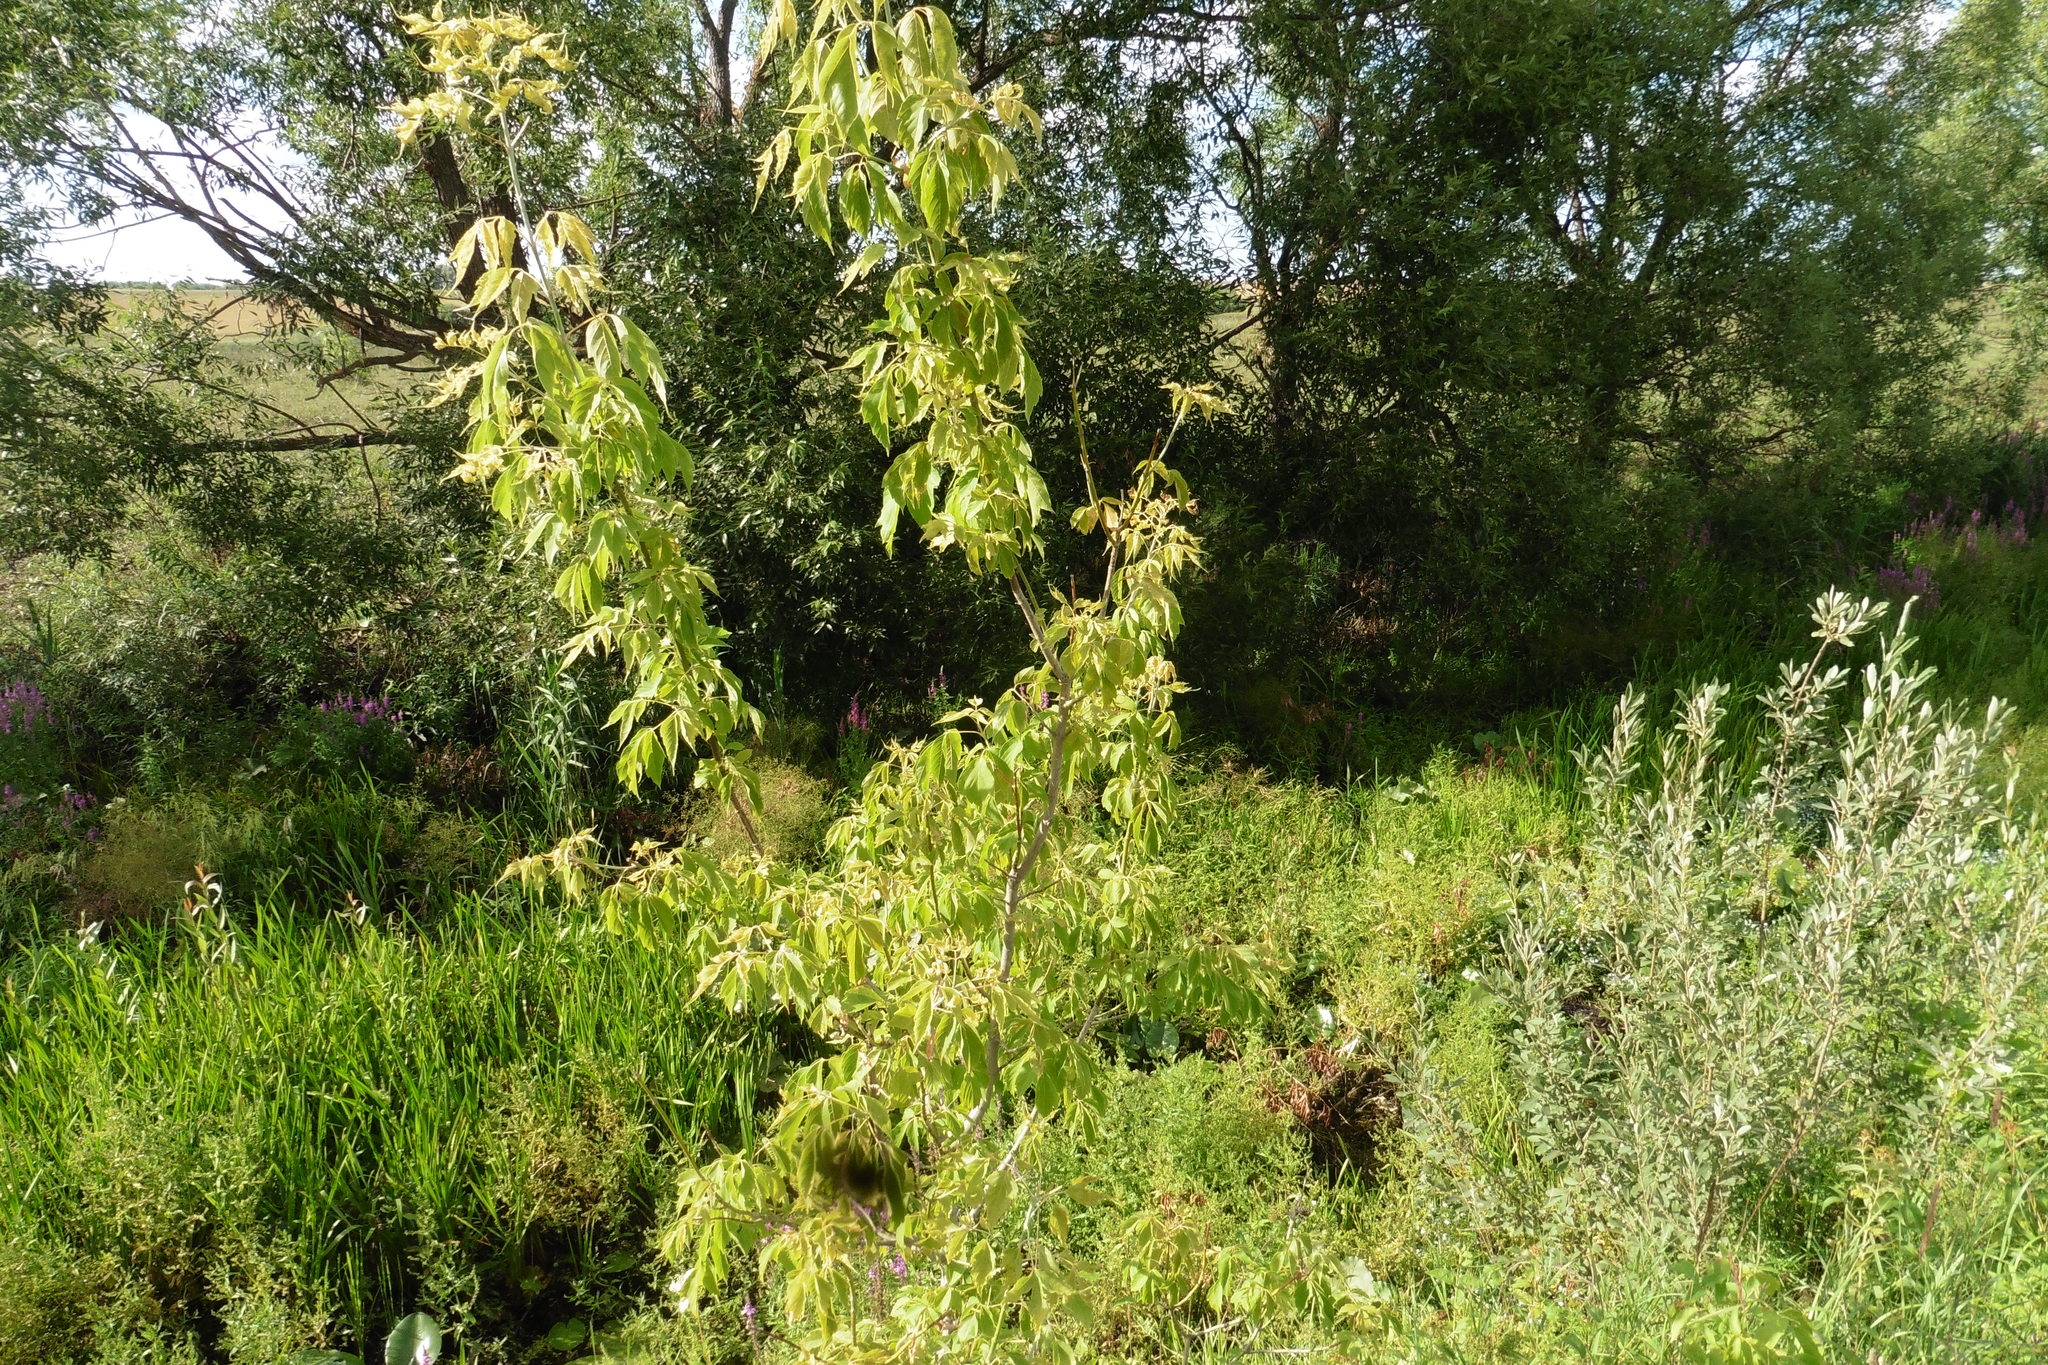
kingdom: Plantae
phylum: Tracheophyta
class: Magnoliopsida
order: Sapindales
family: Sapindaceae
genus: Acer
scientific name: Acer negundo
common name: Ashleaf maple
